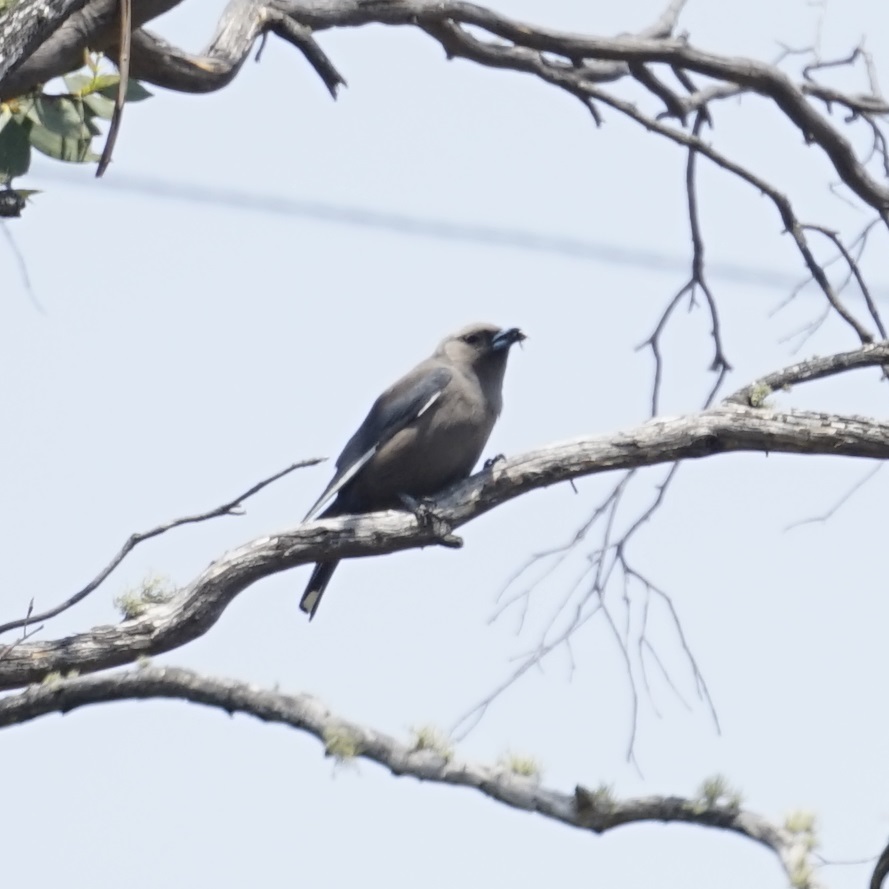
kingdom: Animalia
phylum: Chordata
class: Aves
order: Passeriformes
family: Artamidae
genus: Artamus
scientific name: Artamus cyanopterus
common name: Dusky woodswallow
